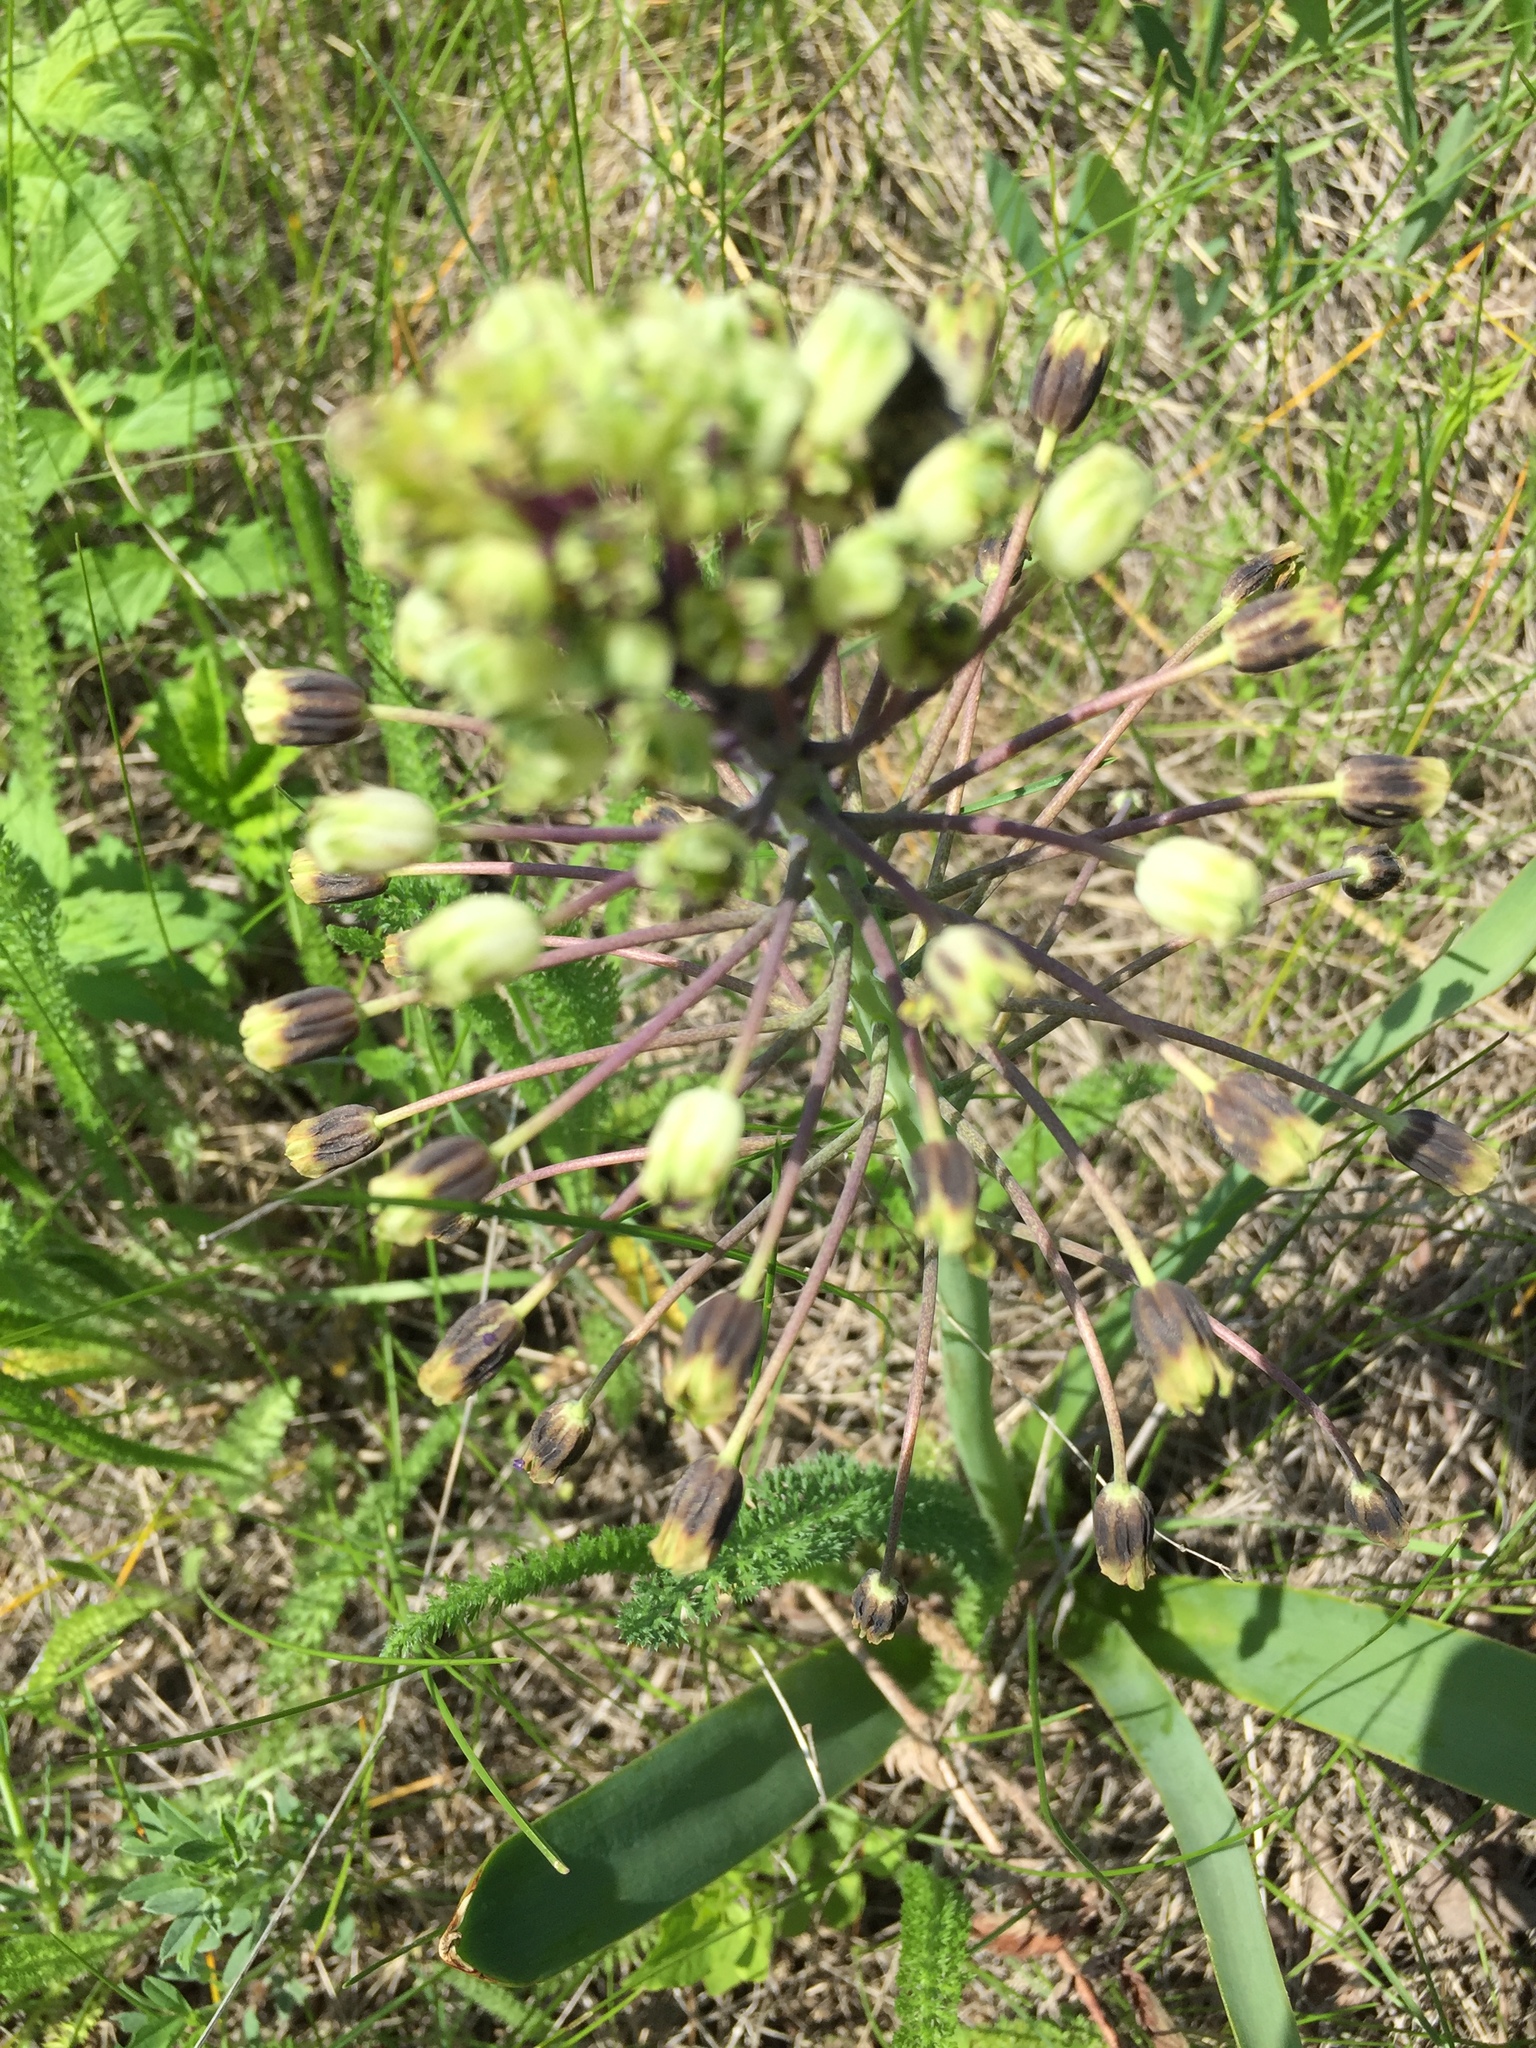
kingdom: Plantae
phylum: Tracheophyta
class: Liliopsida
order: Asparagales
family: Asparagaceae
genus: Bellevalia
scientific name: Bellevalia speciosa
